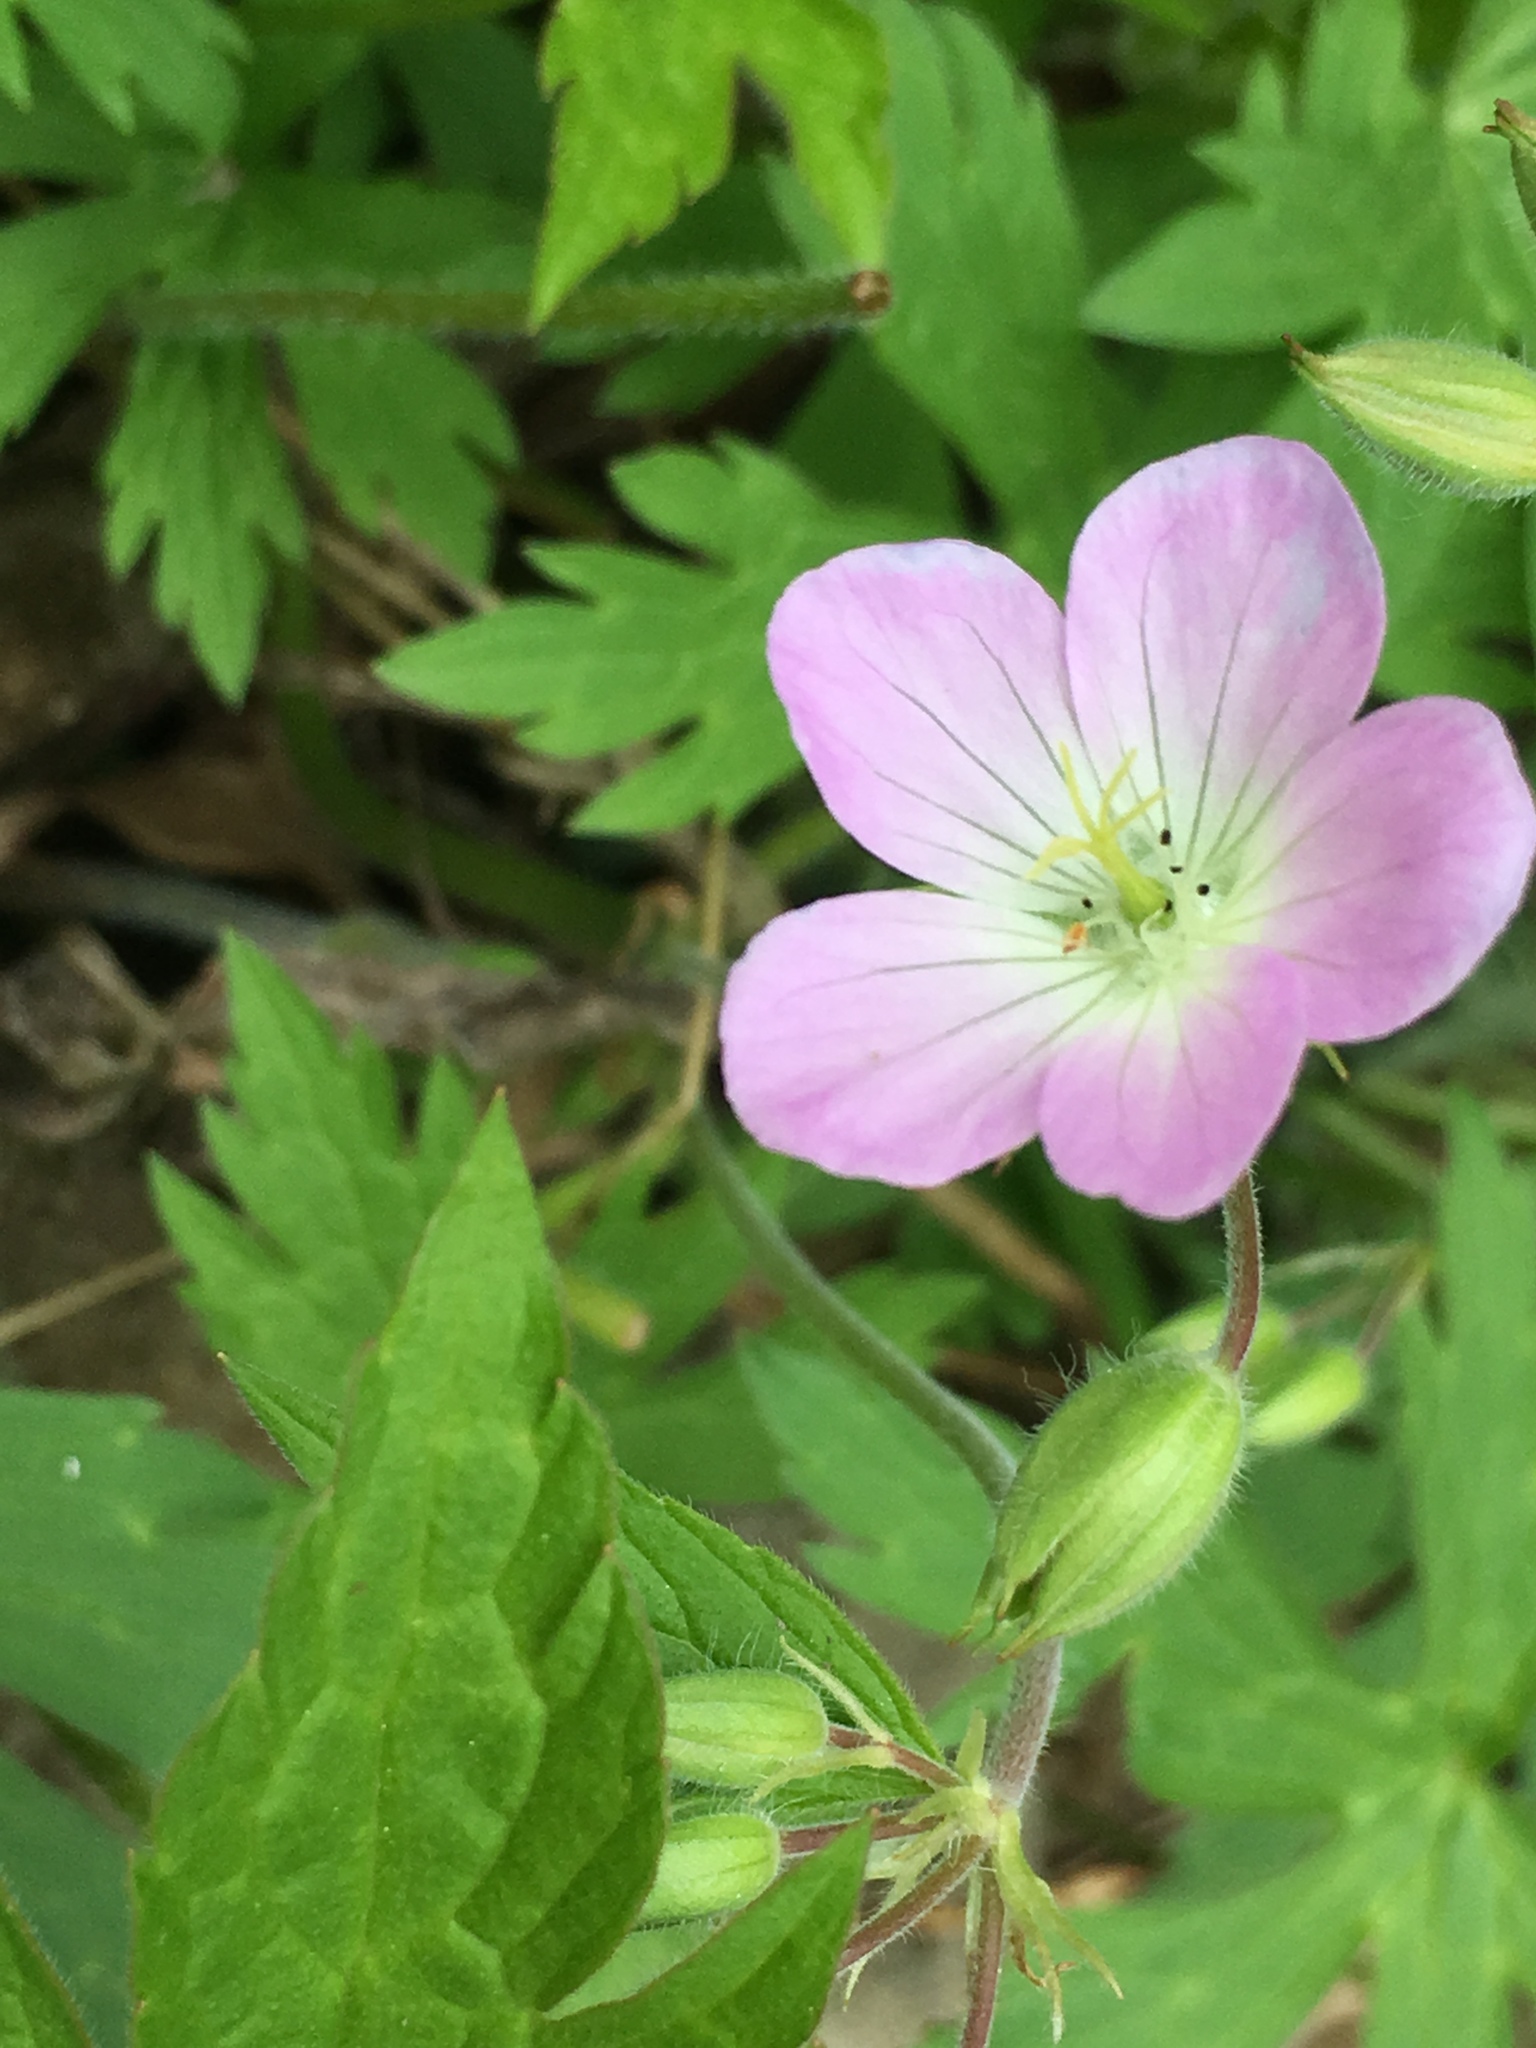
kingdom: Plantae
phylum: Tracheophyta
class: Magnoliopsida
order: Geraniales
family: Geraniaceae
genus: Geranium
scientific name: Geranium maculatum
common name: Spotted geranium
